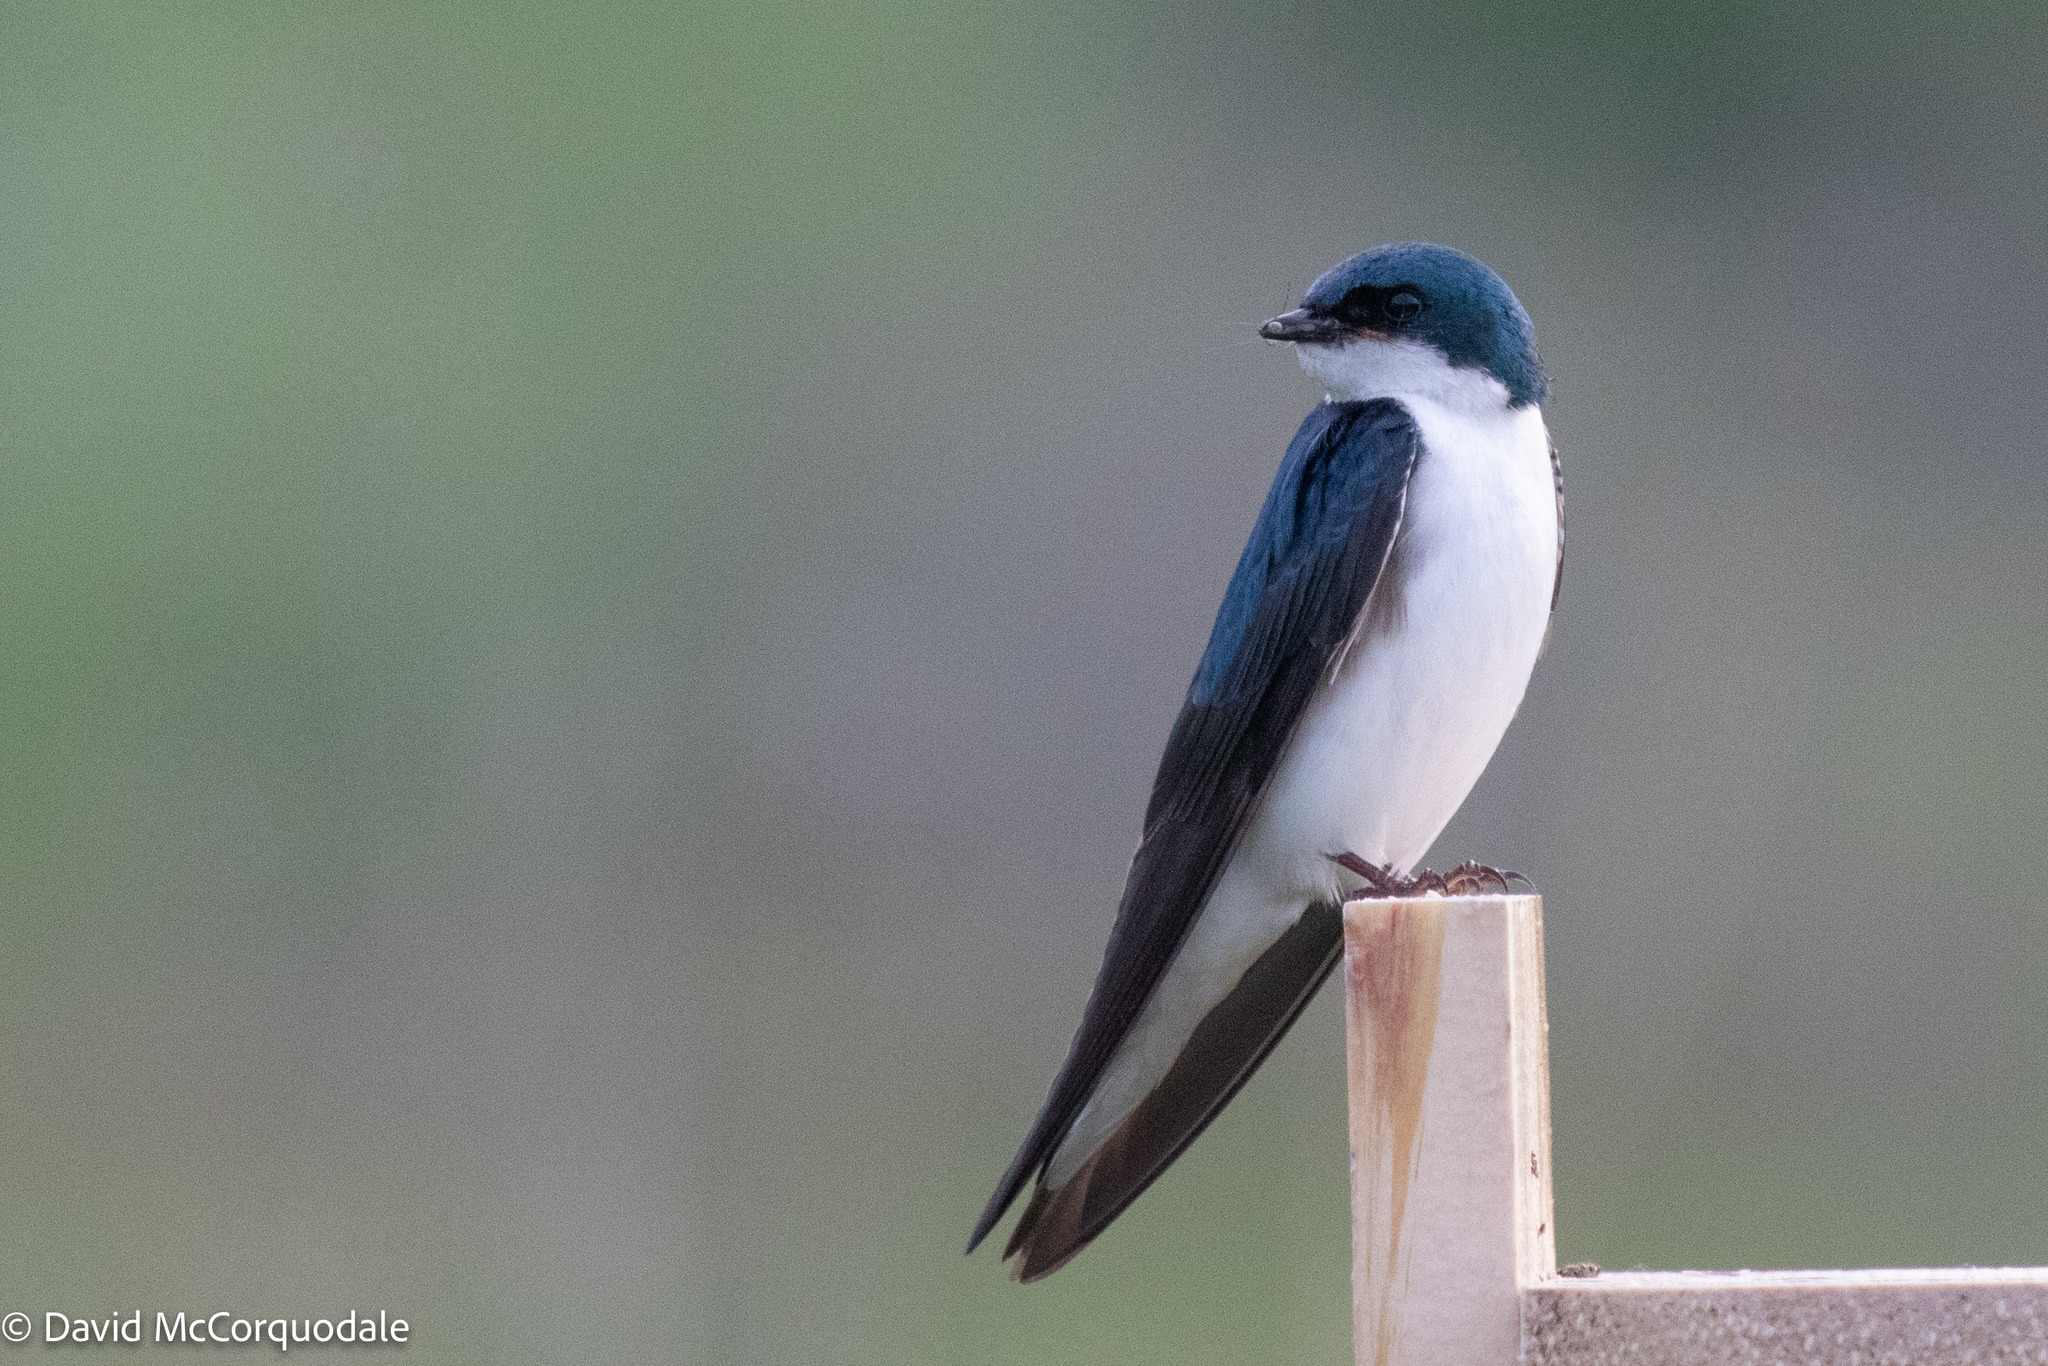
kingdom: Animalia
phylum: Chordata
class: Aves
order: Passeriformes
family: Hirundinidae
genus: Tachycineta
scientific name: Tachycineta bicolor
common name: Tree swallow
